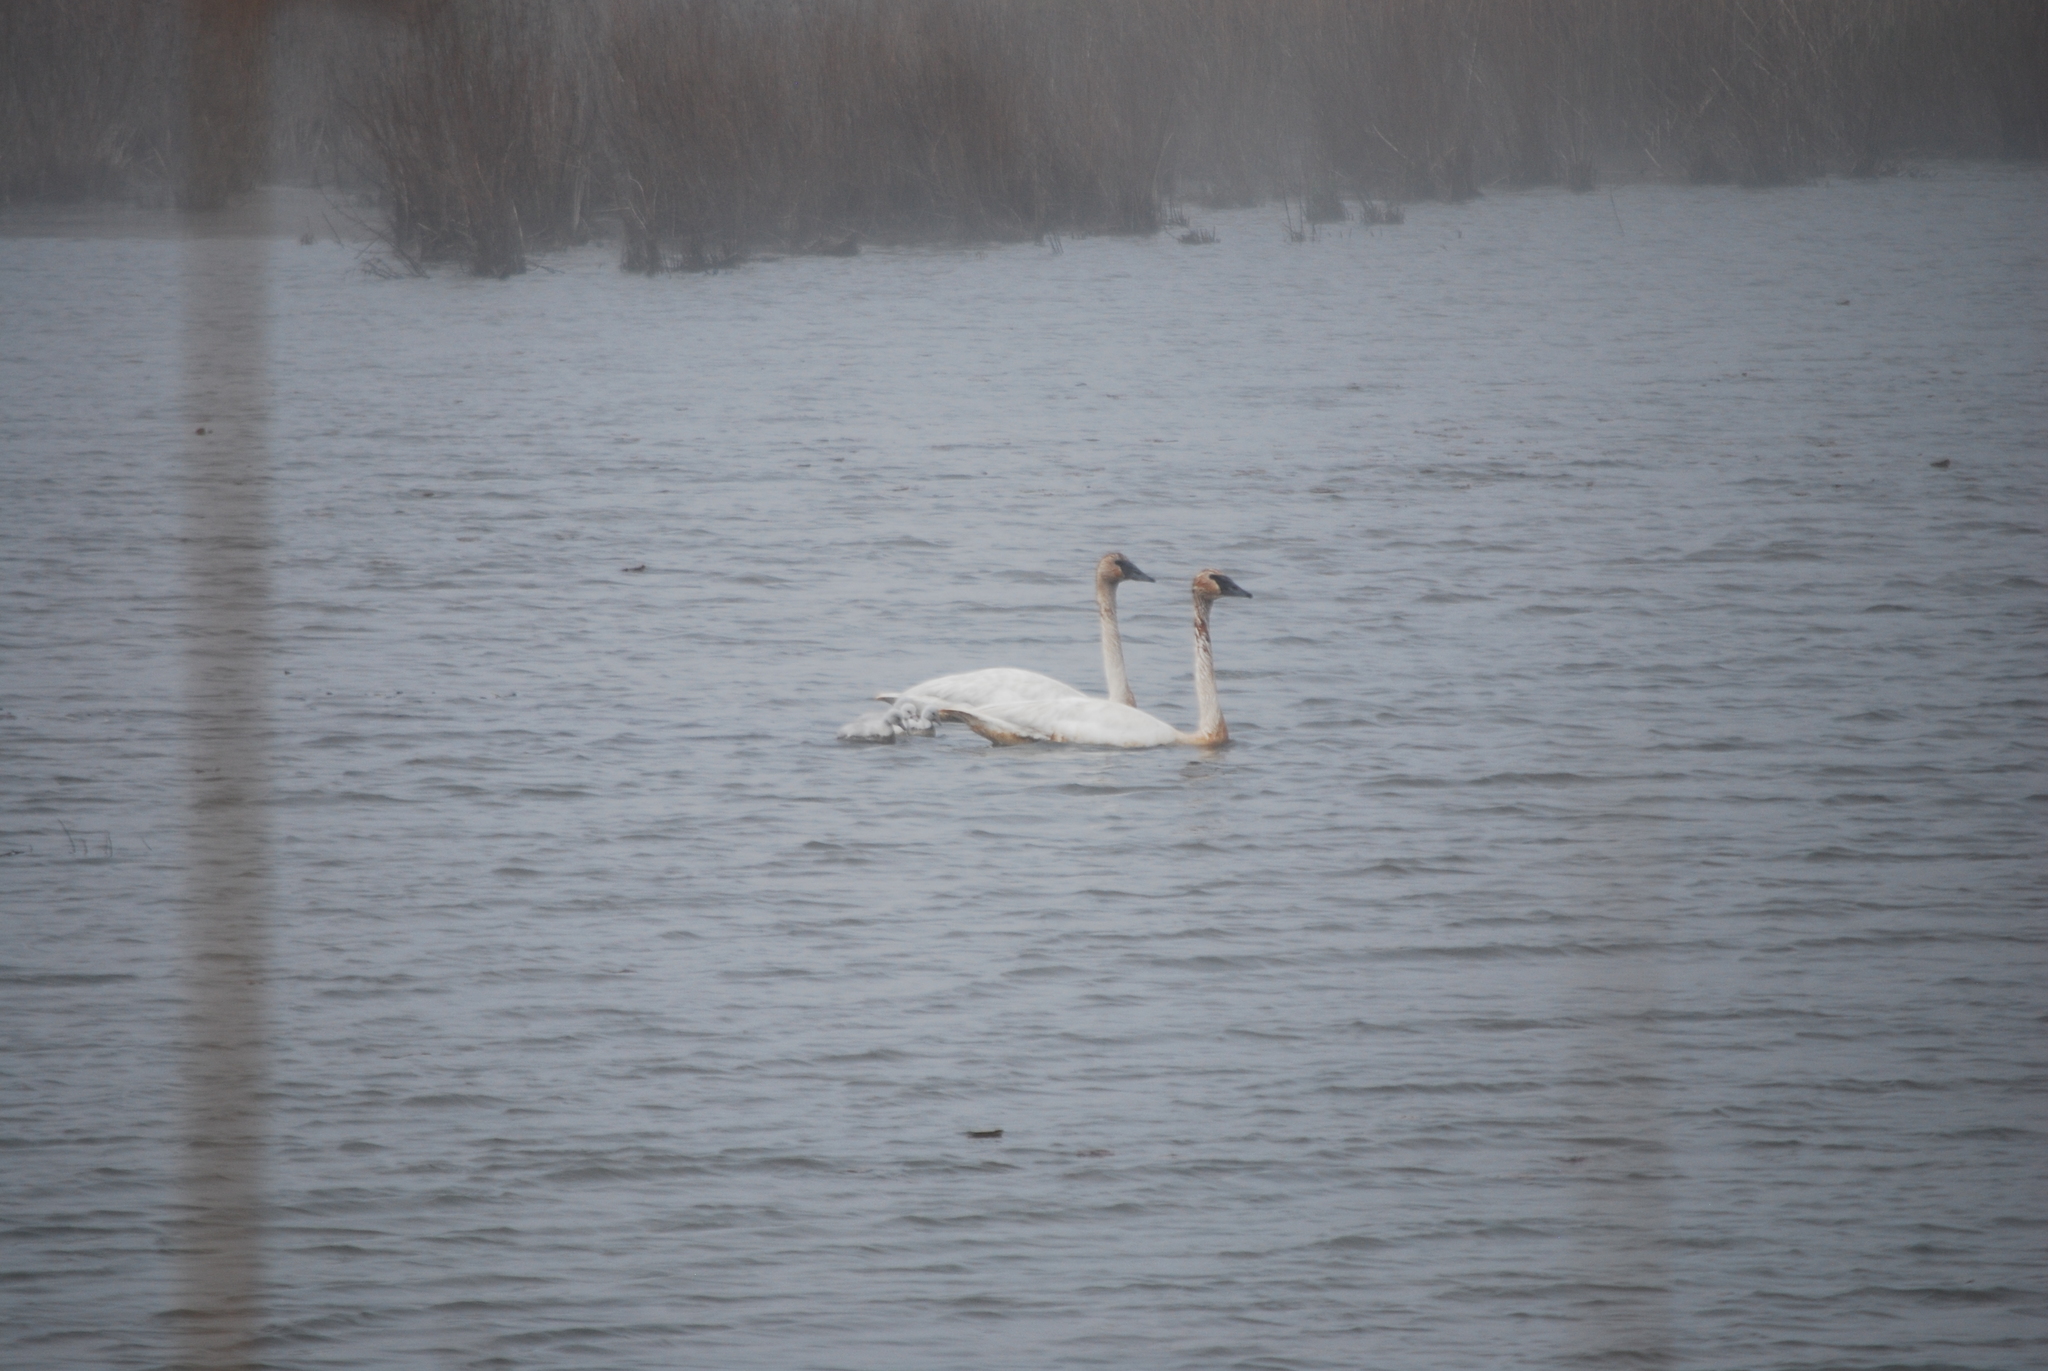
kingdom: Animalia
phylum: Chordata
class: Aves
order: Anseriformes
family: Anatidae
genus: Cygnus
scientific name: Cygnus buccinator
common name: Trumpeter swan
